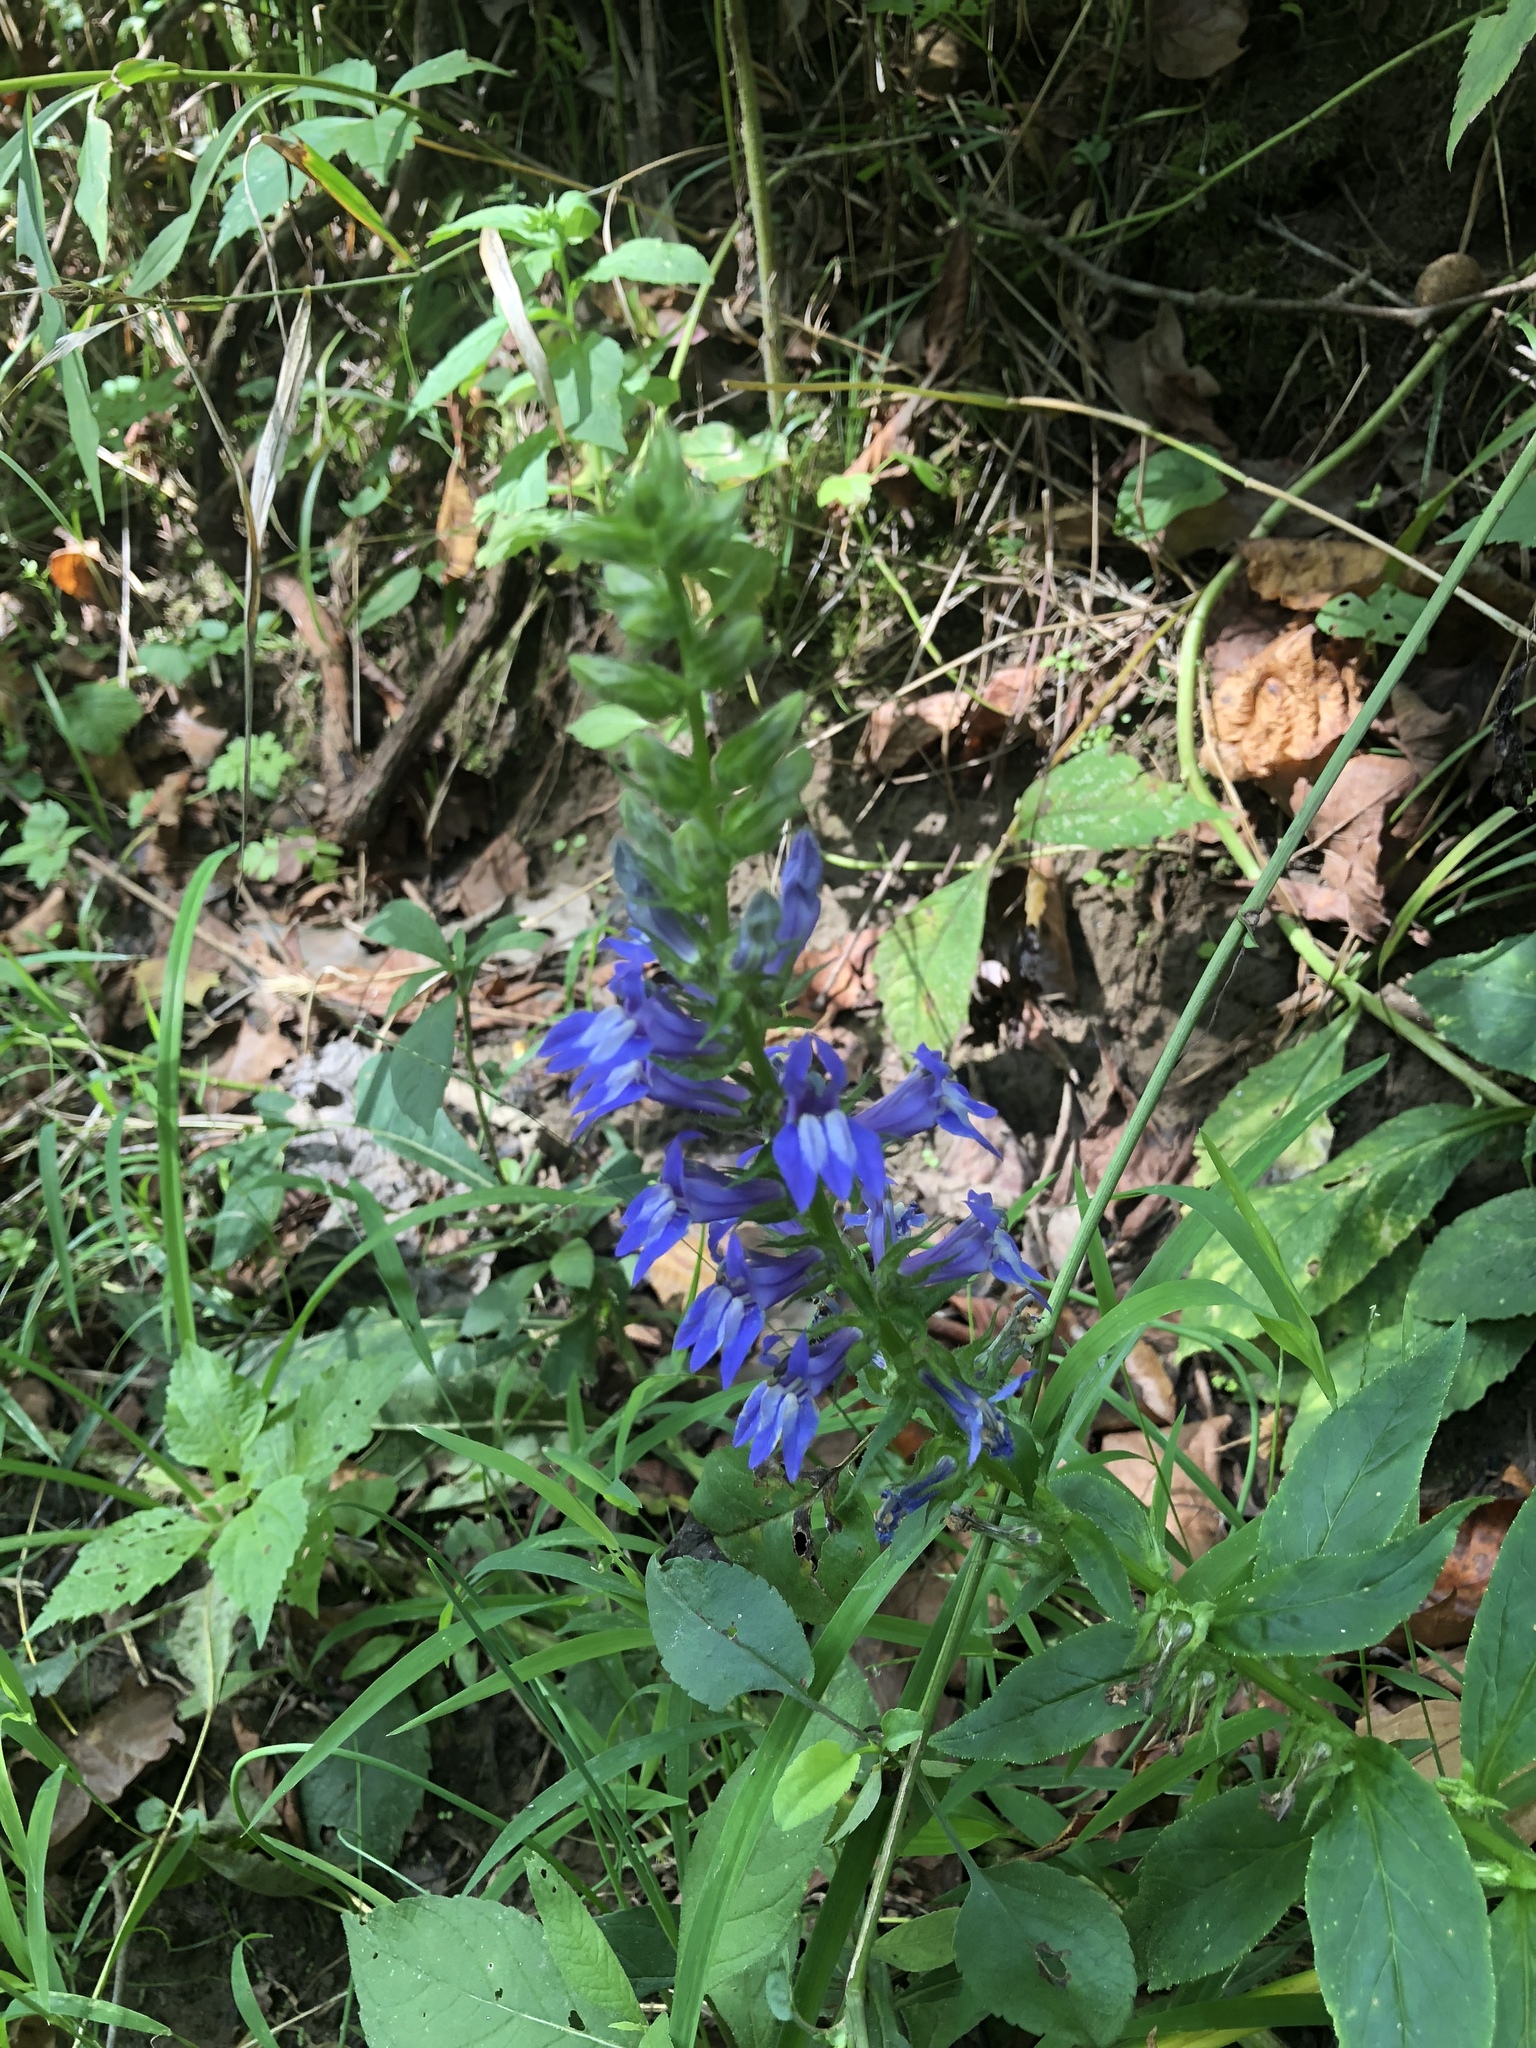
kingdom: Plantae
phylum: Tracheophyta
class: Magnoliopsida
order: Asterales
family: Campanulaceae
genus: Lobelia
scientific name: Lobelia siphilitica
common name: Great lobelia
